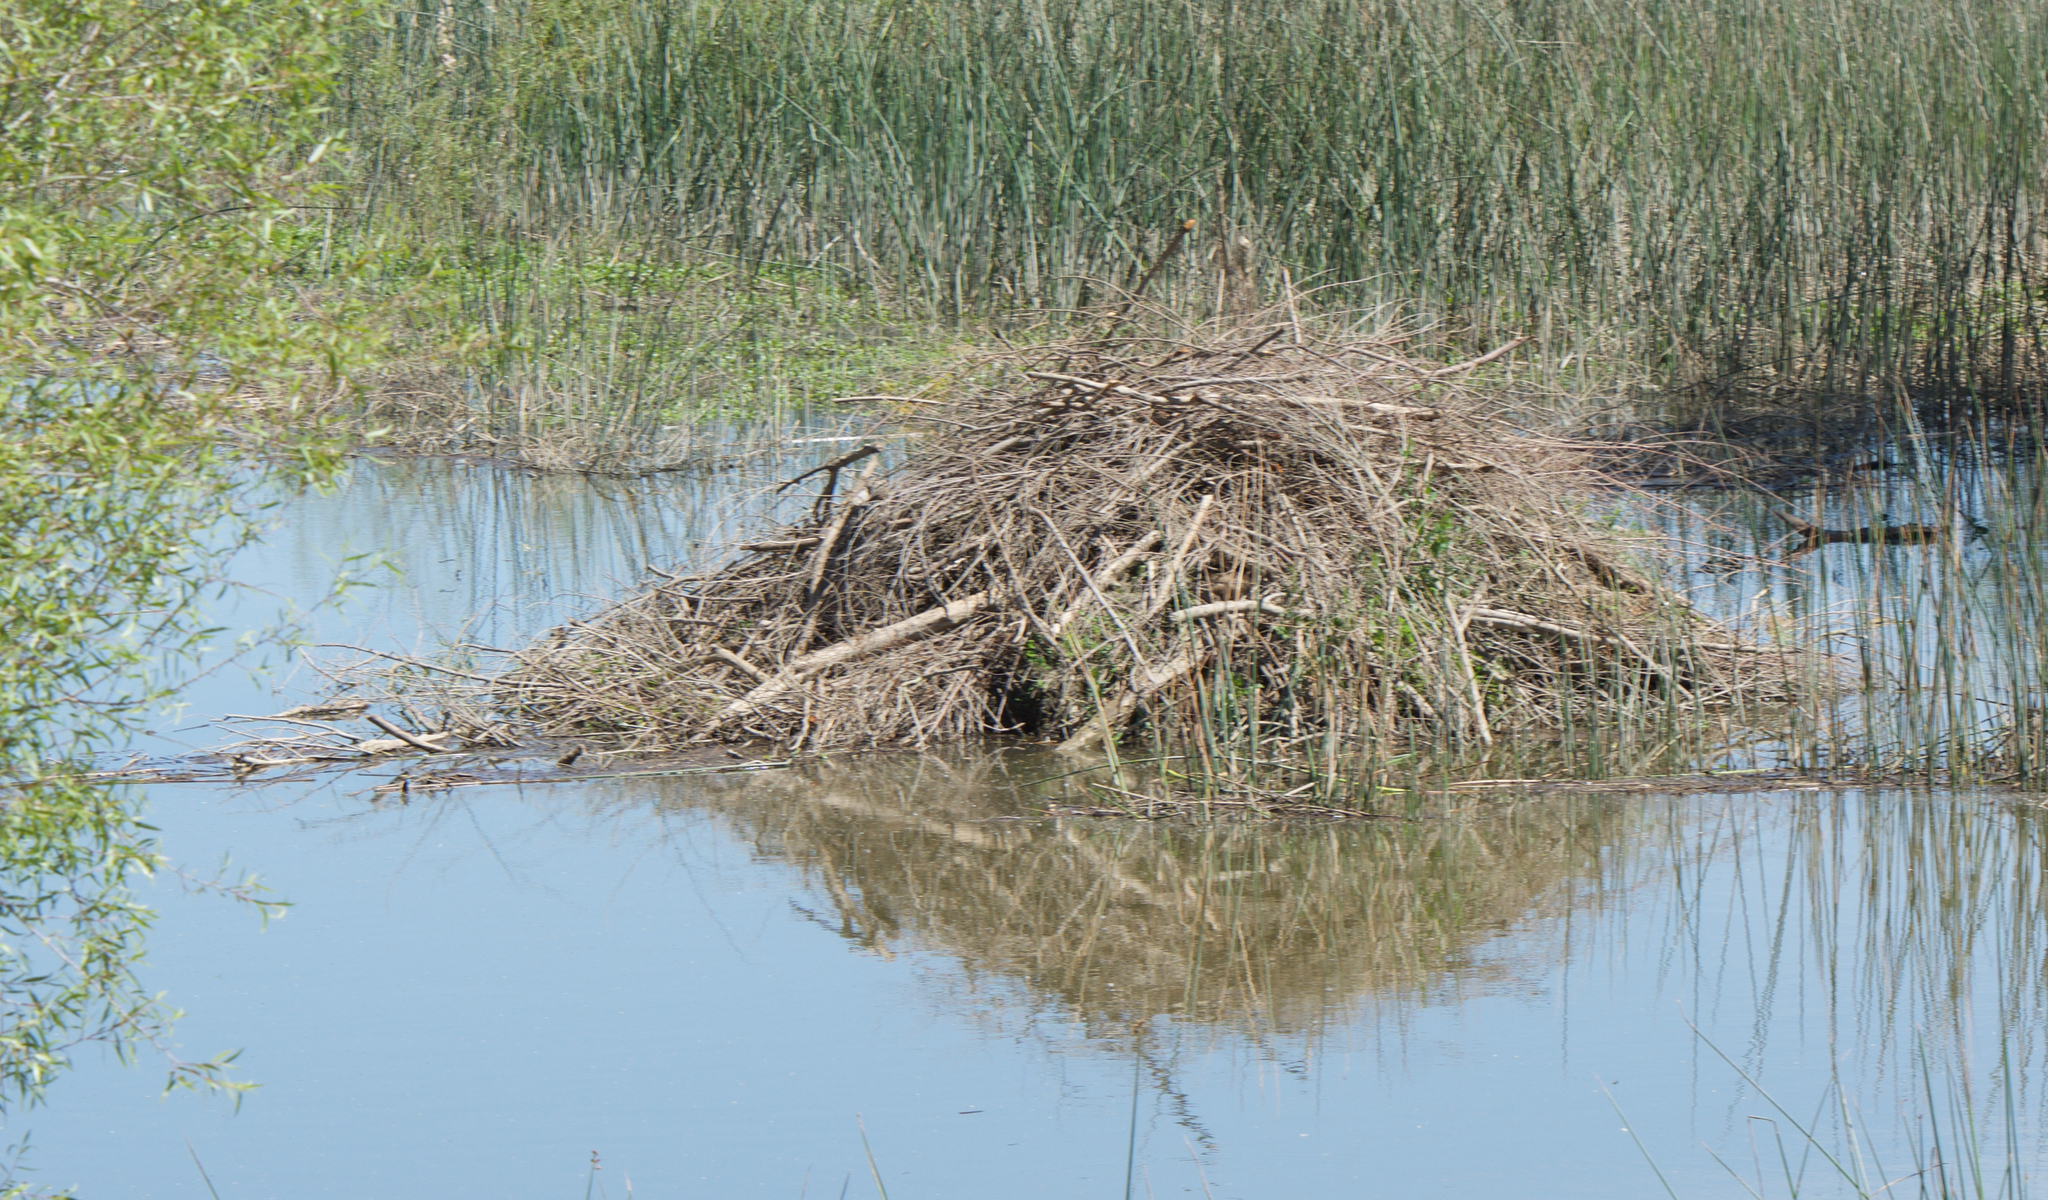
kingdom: Animalia
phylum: Chordata
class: Mammalia
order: Rodentia
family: Castoridae
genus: Castor
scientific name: Castor canadensis
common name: American beaver
